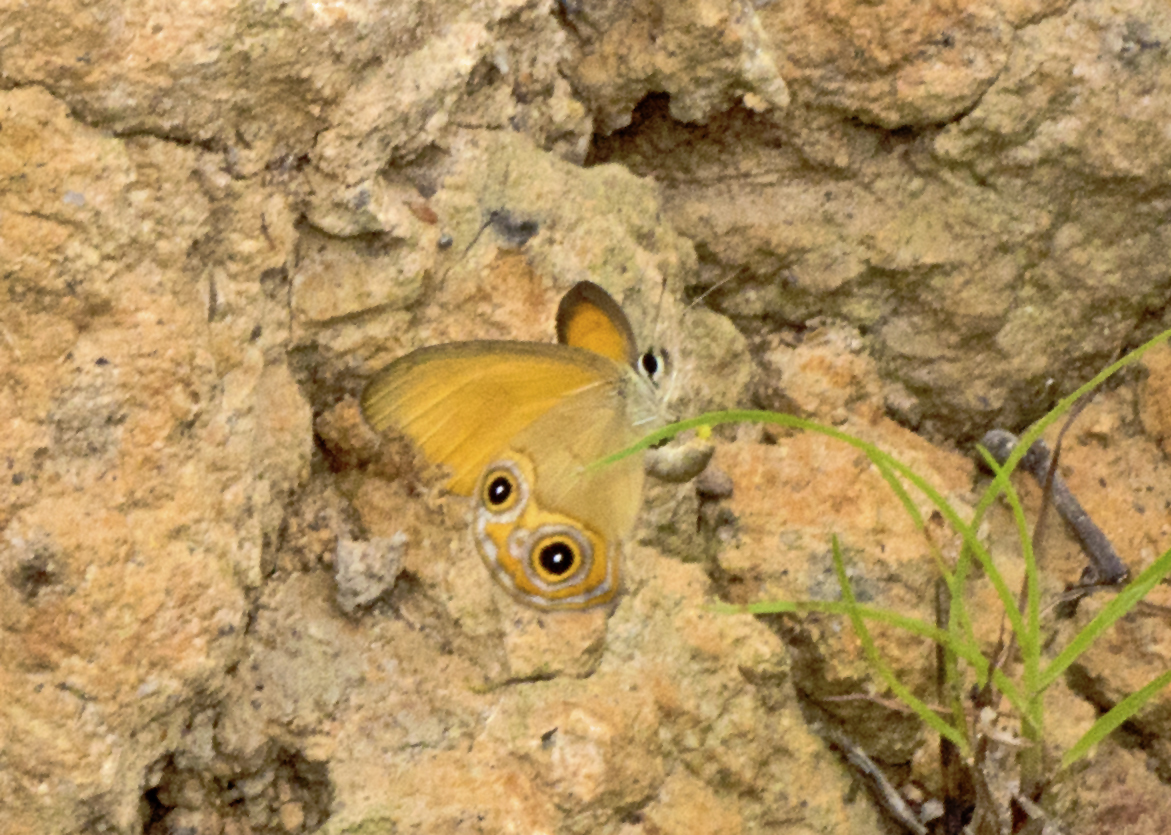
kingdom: Animalia
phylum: Arthropoda
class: Insecta
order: Lepidoptera
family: Nymphalidae
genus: Hypocysta
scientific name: Hypocysta adiante
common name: Orange ringlet
